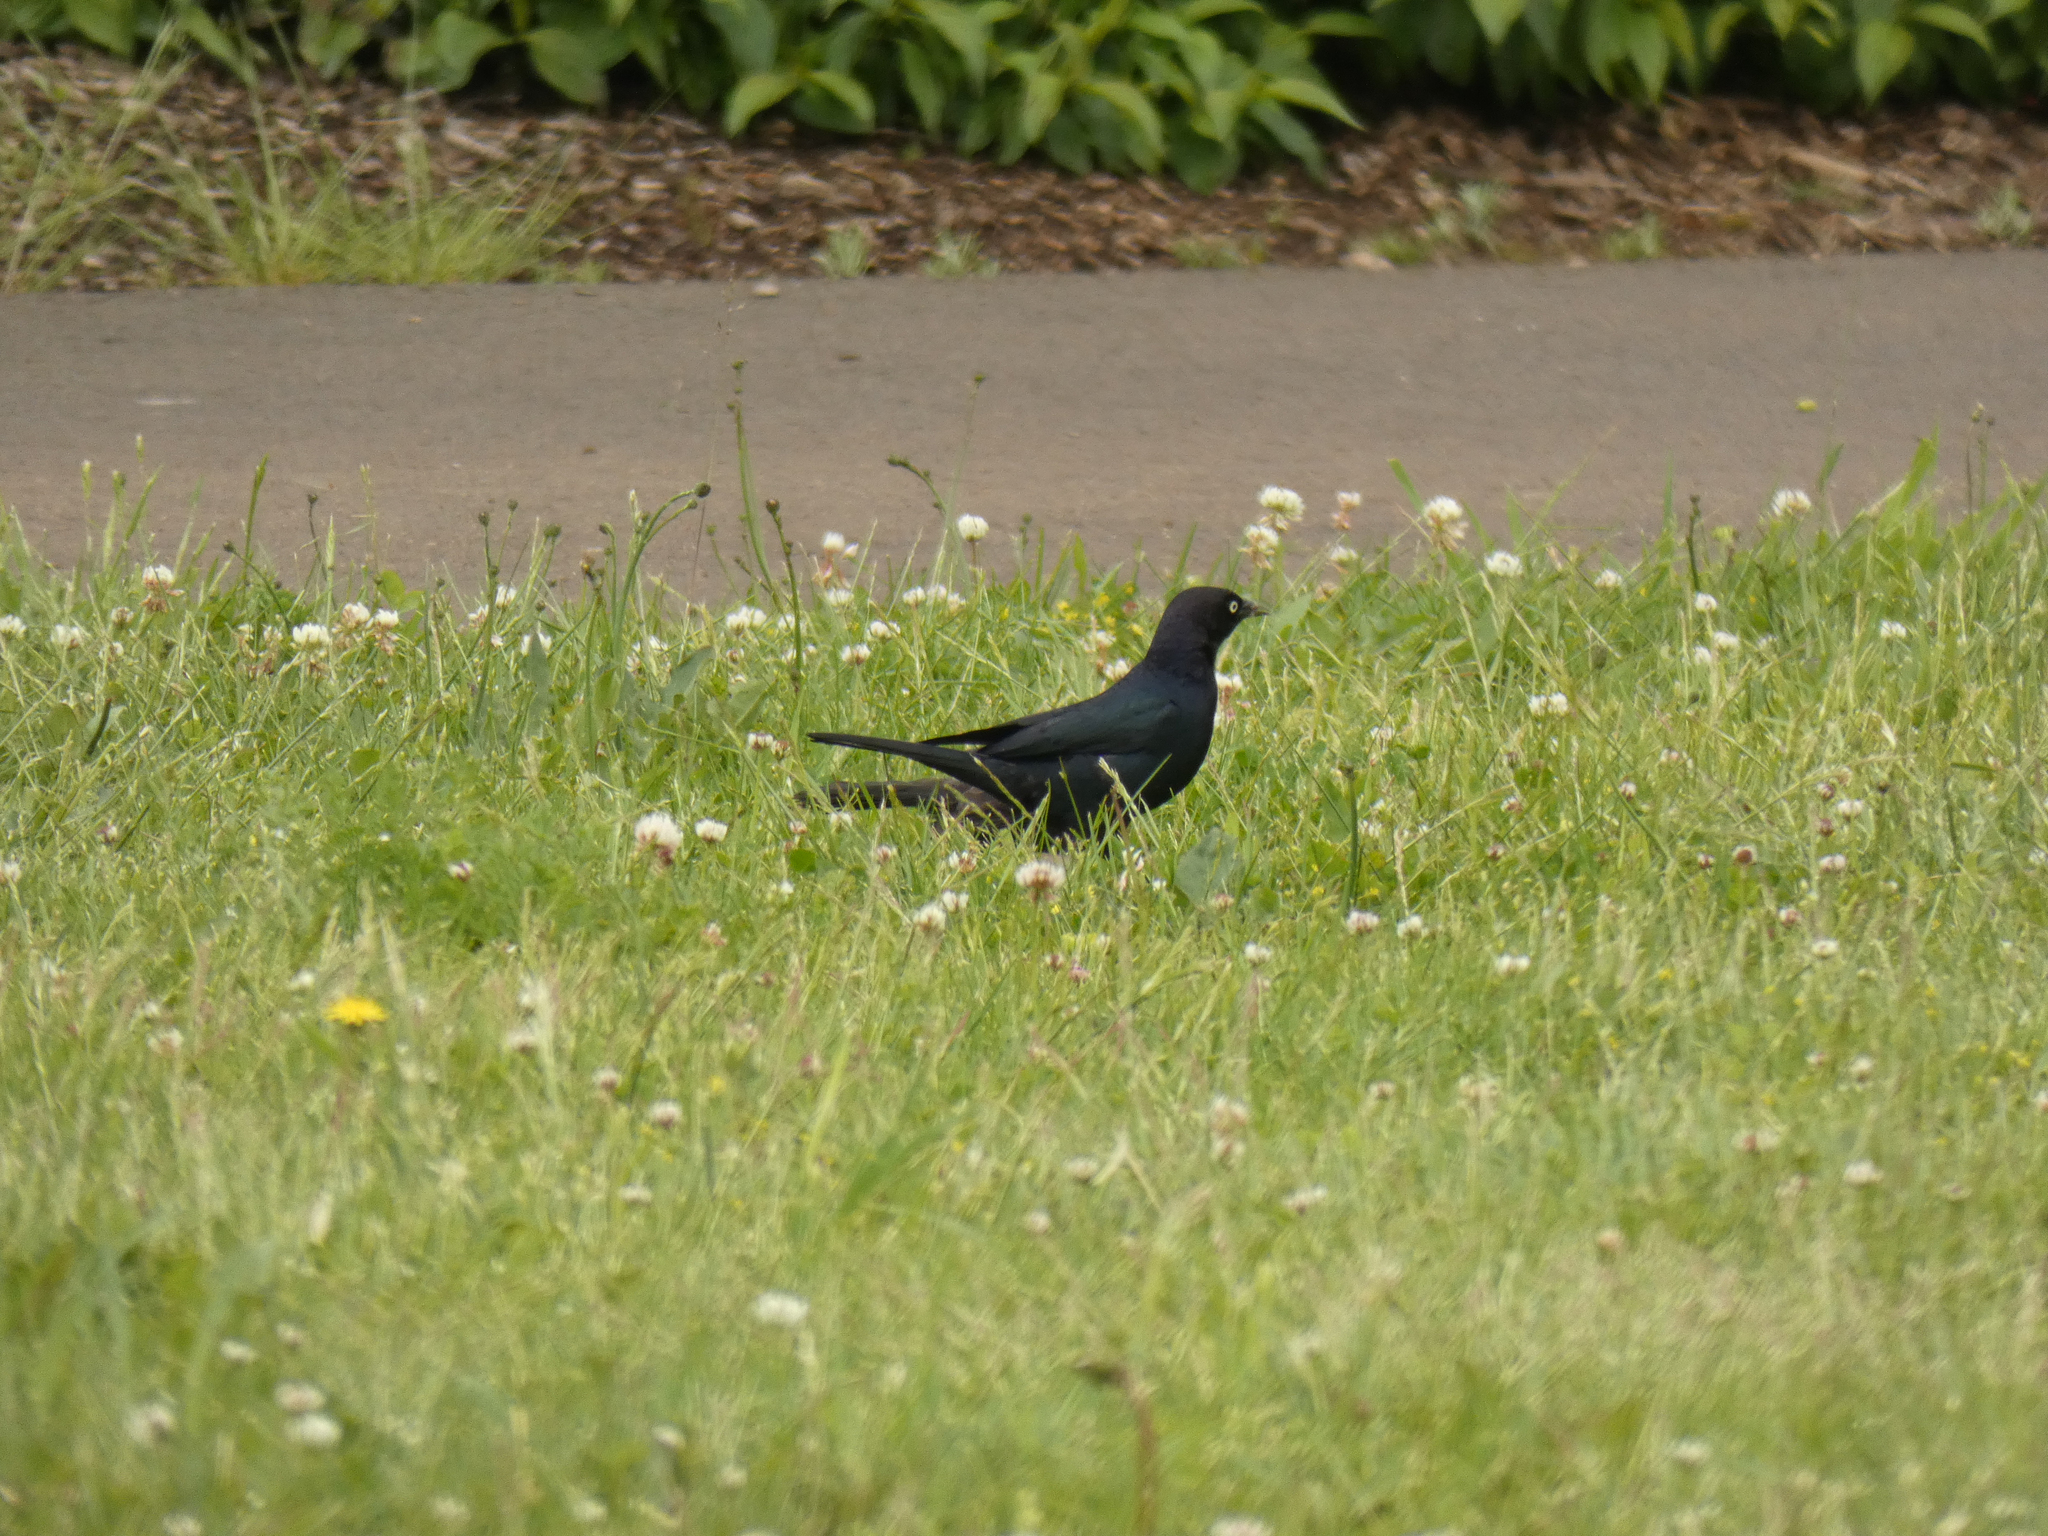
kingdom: Animalia
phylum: Chordata
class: Aves
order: Passeriformes
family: Icteridae
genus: Euphagus
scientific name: Euphagus cyanocephalus
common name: Brewer's blackbird
